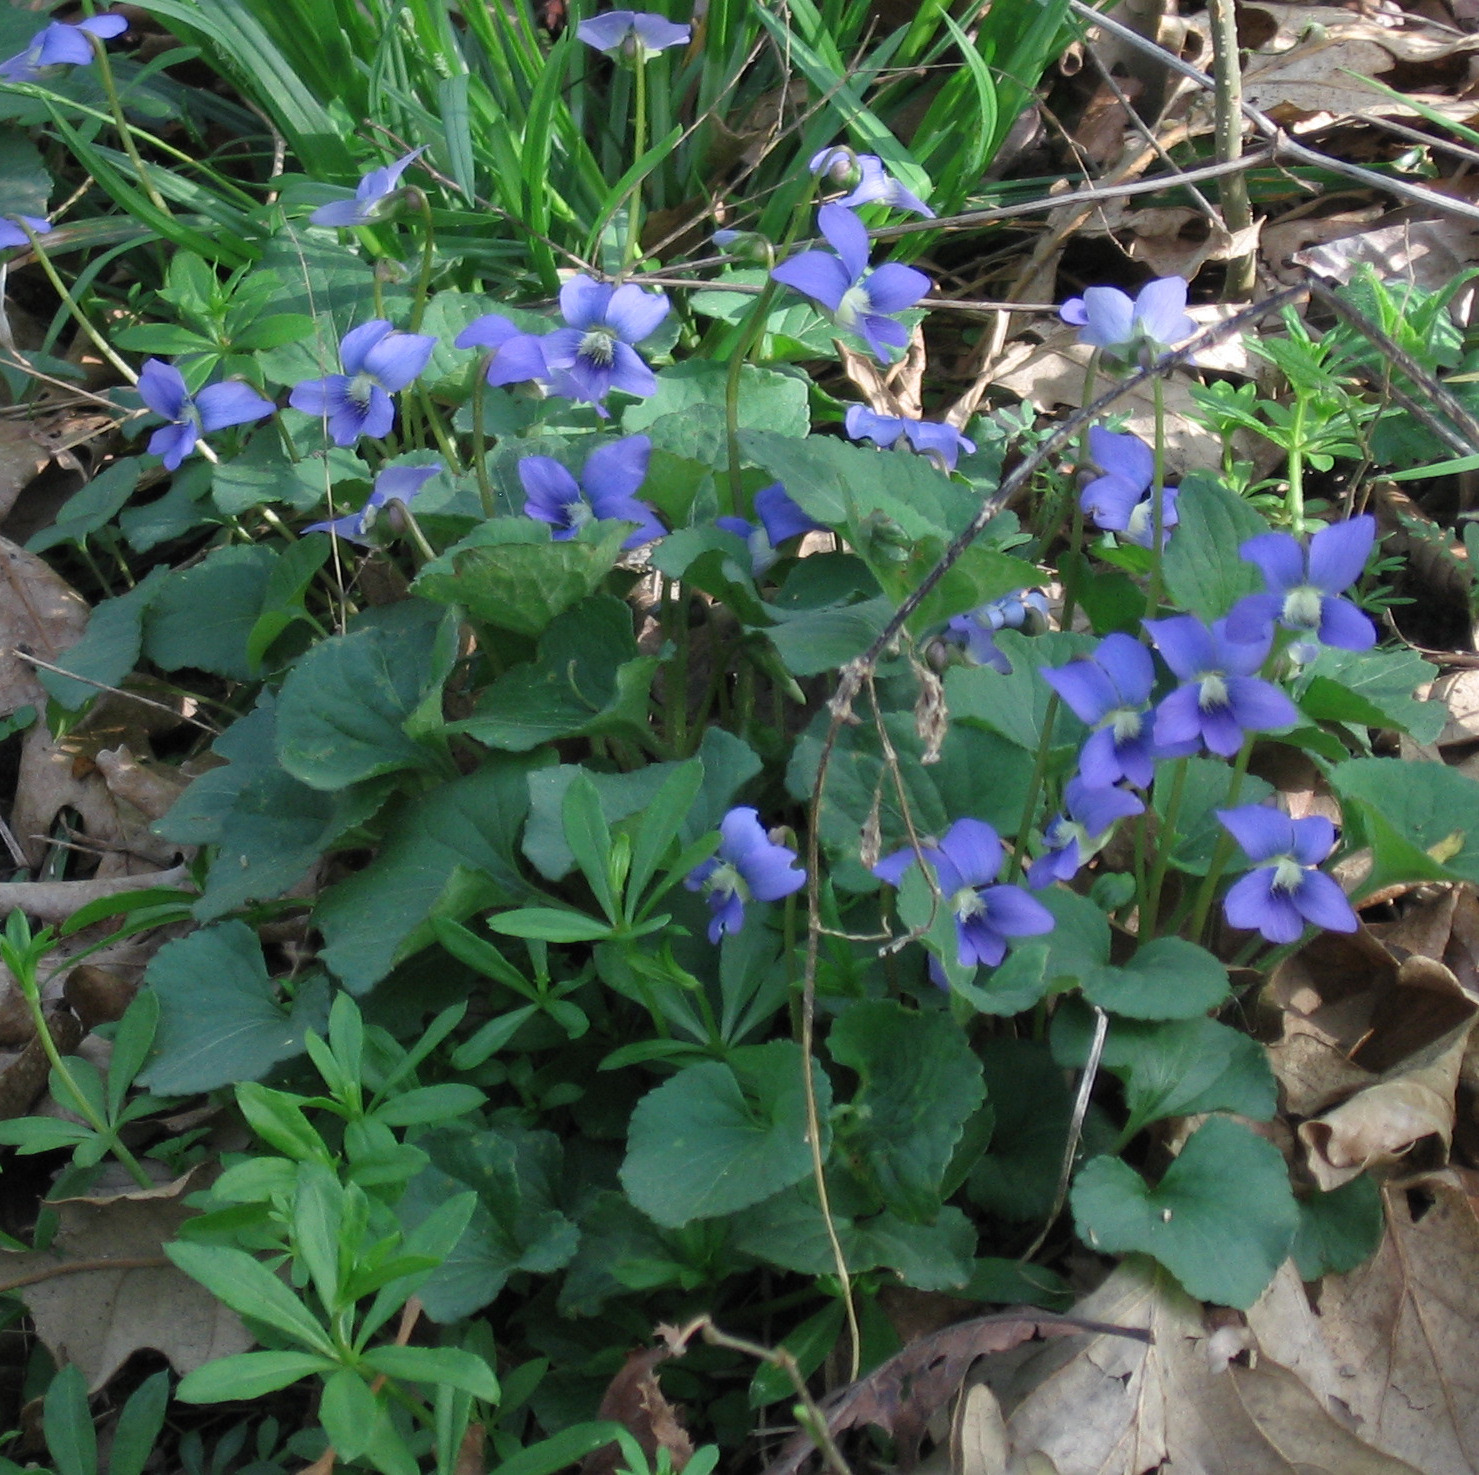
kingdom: Plantae
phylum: Tracheophyta
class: Magnoliopsida
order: Malpighiales
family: Violaceae
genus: Viola
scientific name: Viola
